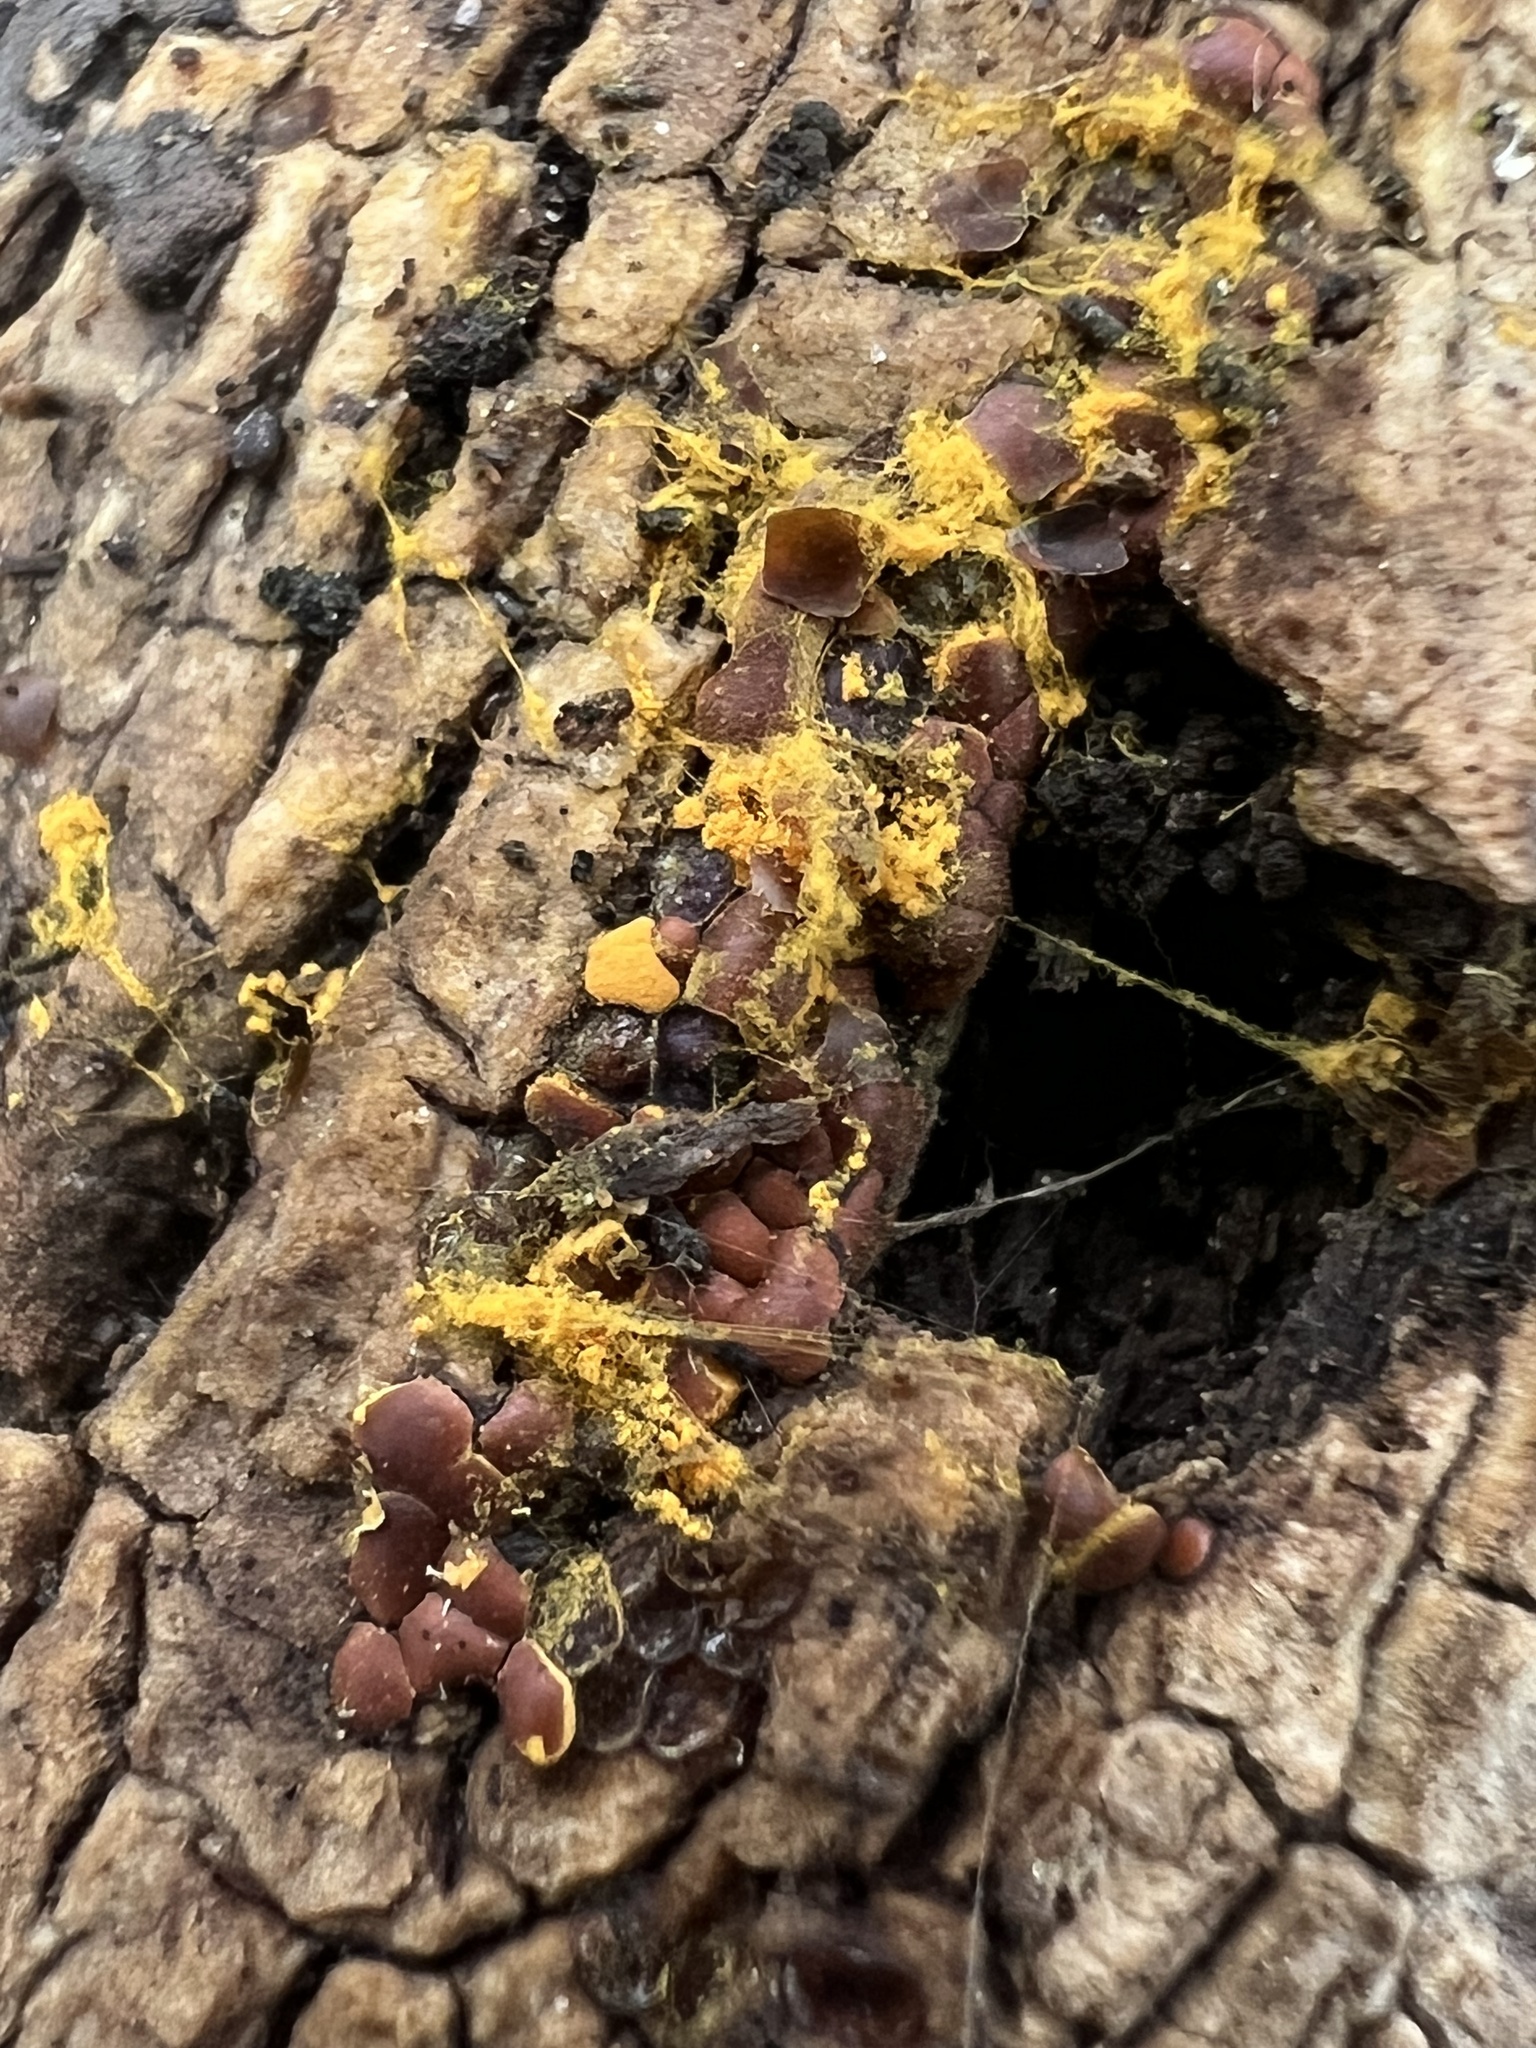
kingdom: Protozoa
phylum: Mycetozoa
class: Myxomycetes
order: Trichiales
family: Trichiaceae
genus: Perichaena
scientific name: Perichaena depressa
